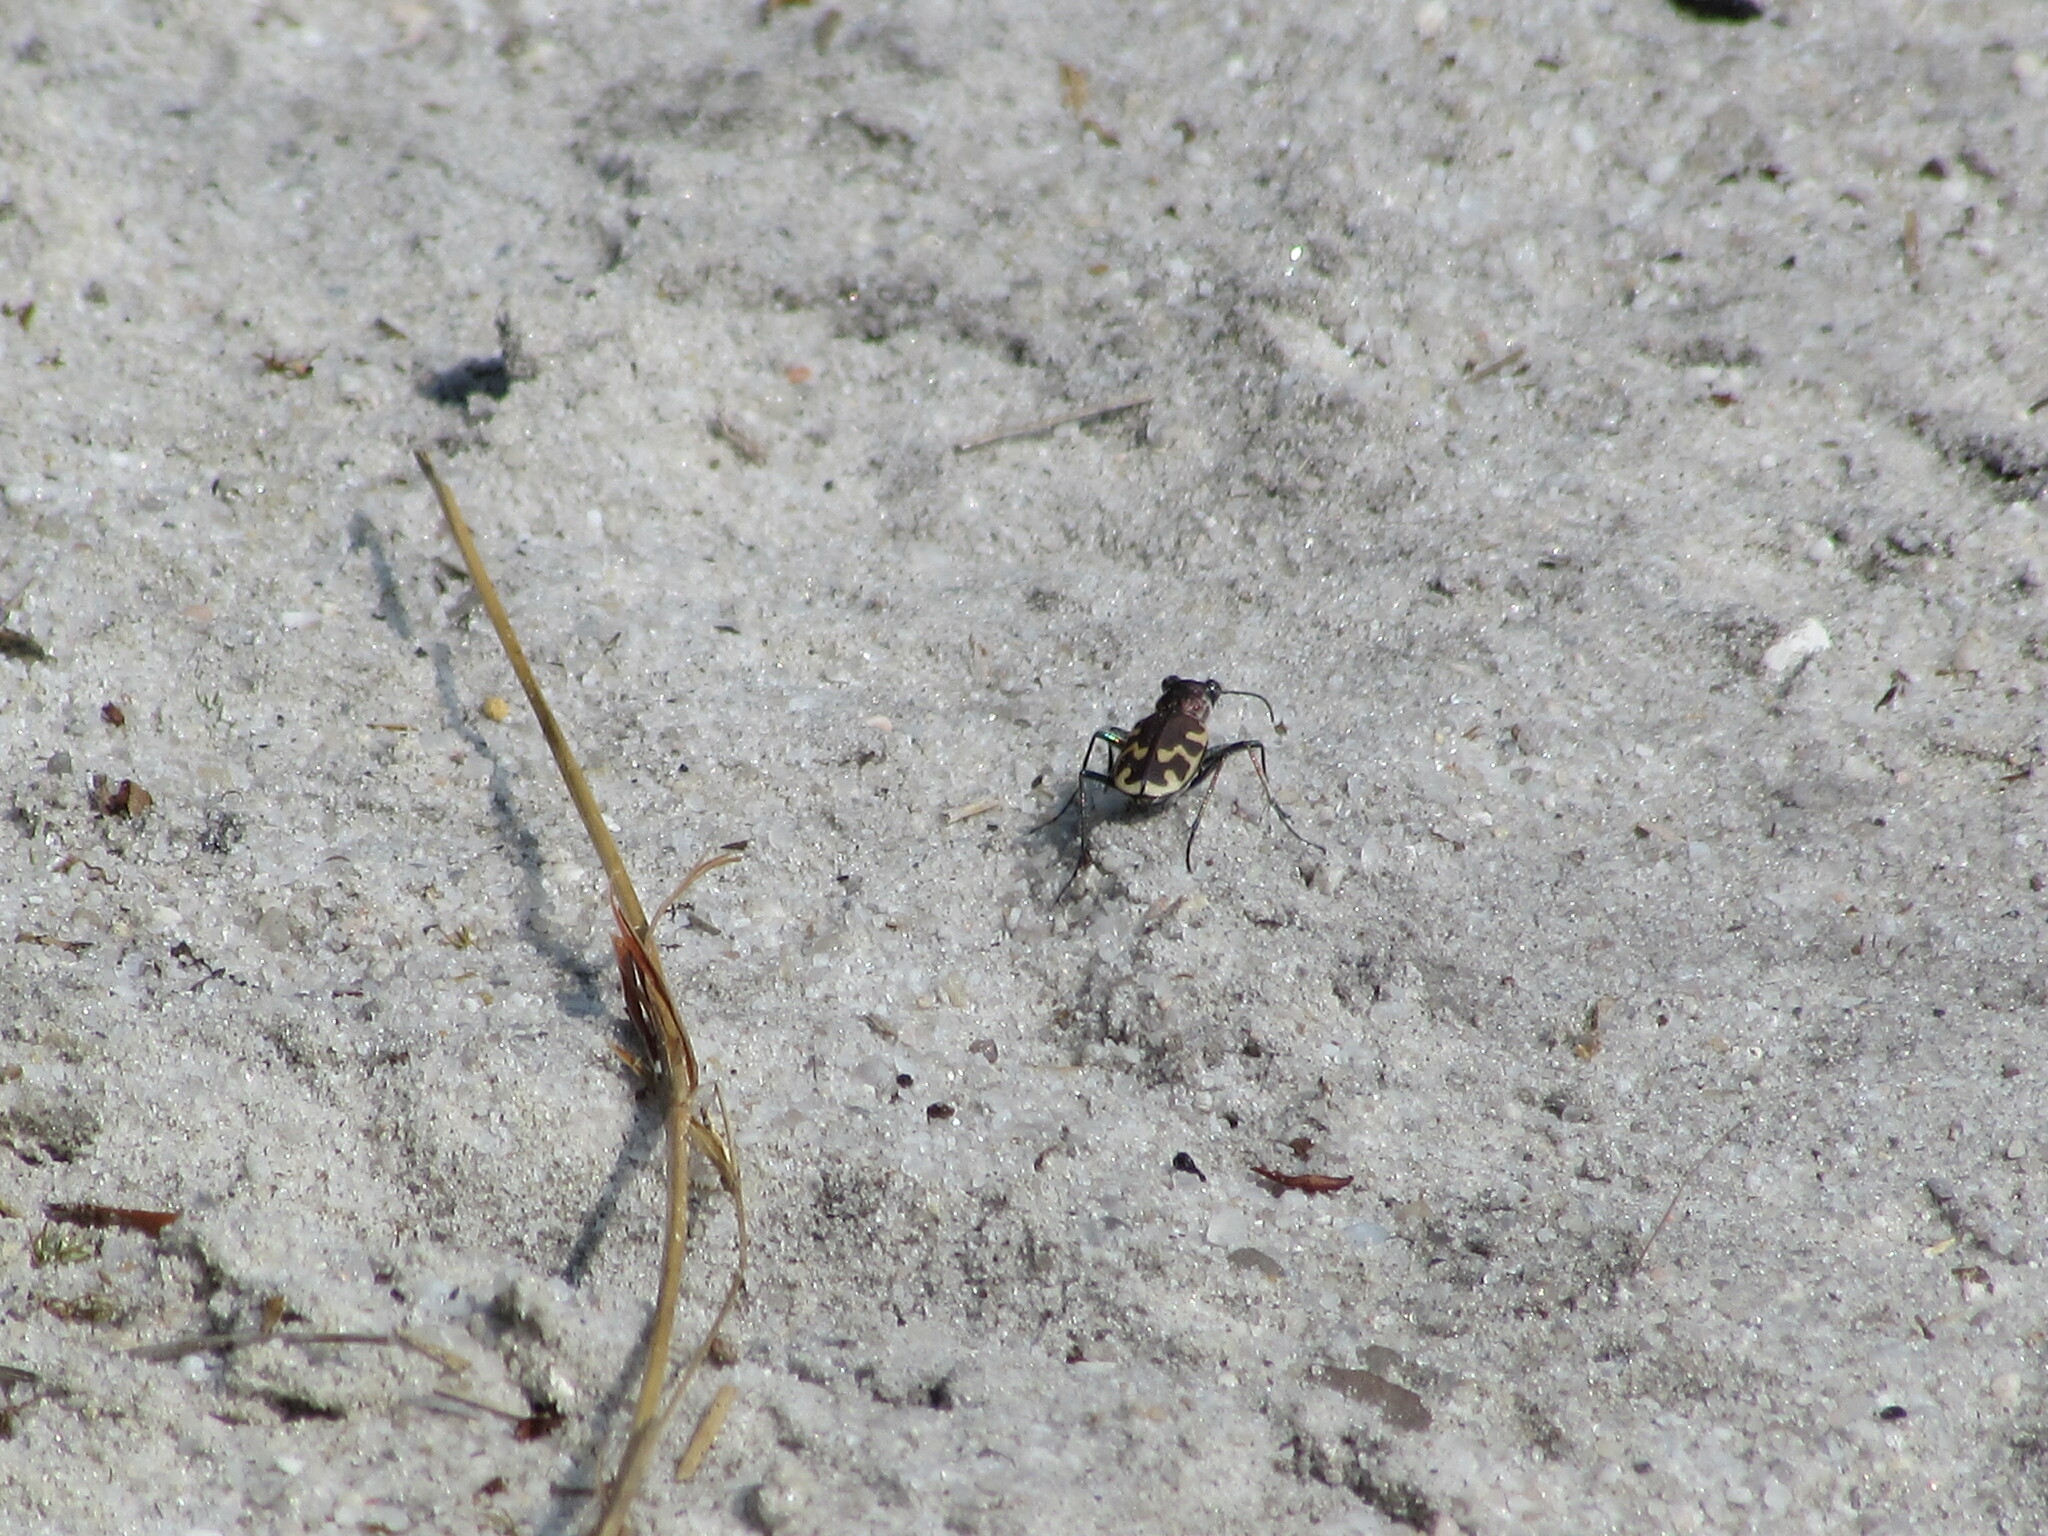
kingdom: Animalia
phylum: Arthropoda
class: Insecta
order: Coleoptera
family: Carabidae
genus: Cicindela
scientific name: Cicindela formosa
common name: Big sand tiger beetle
